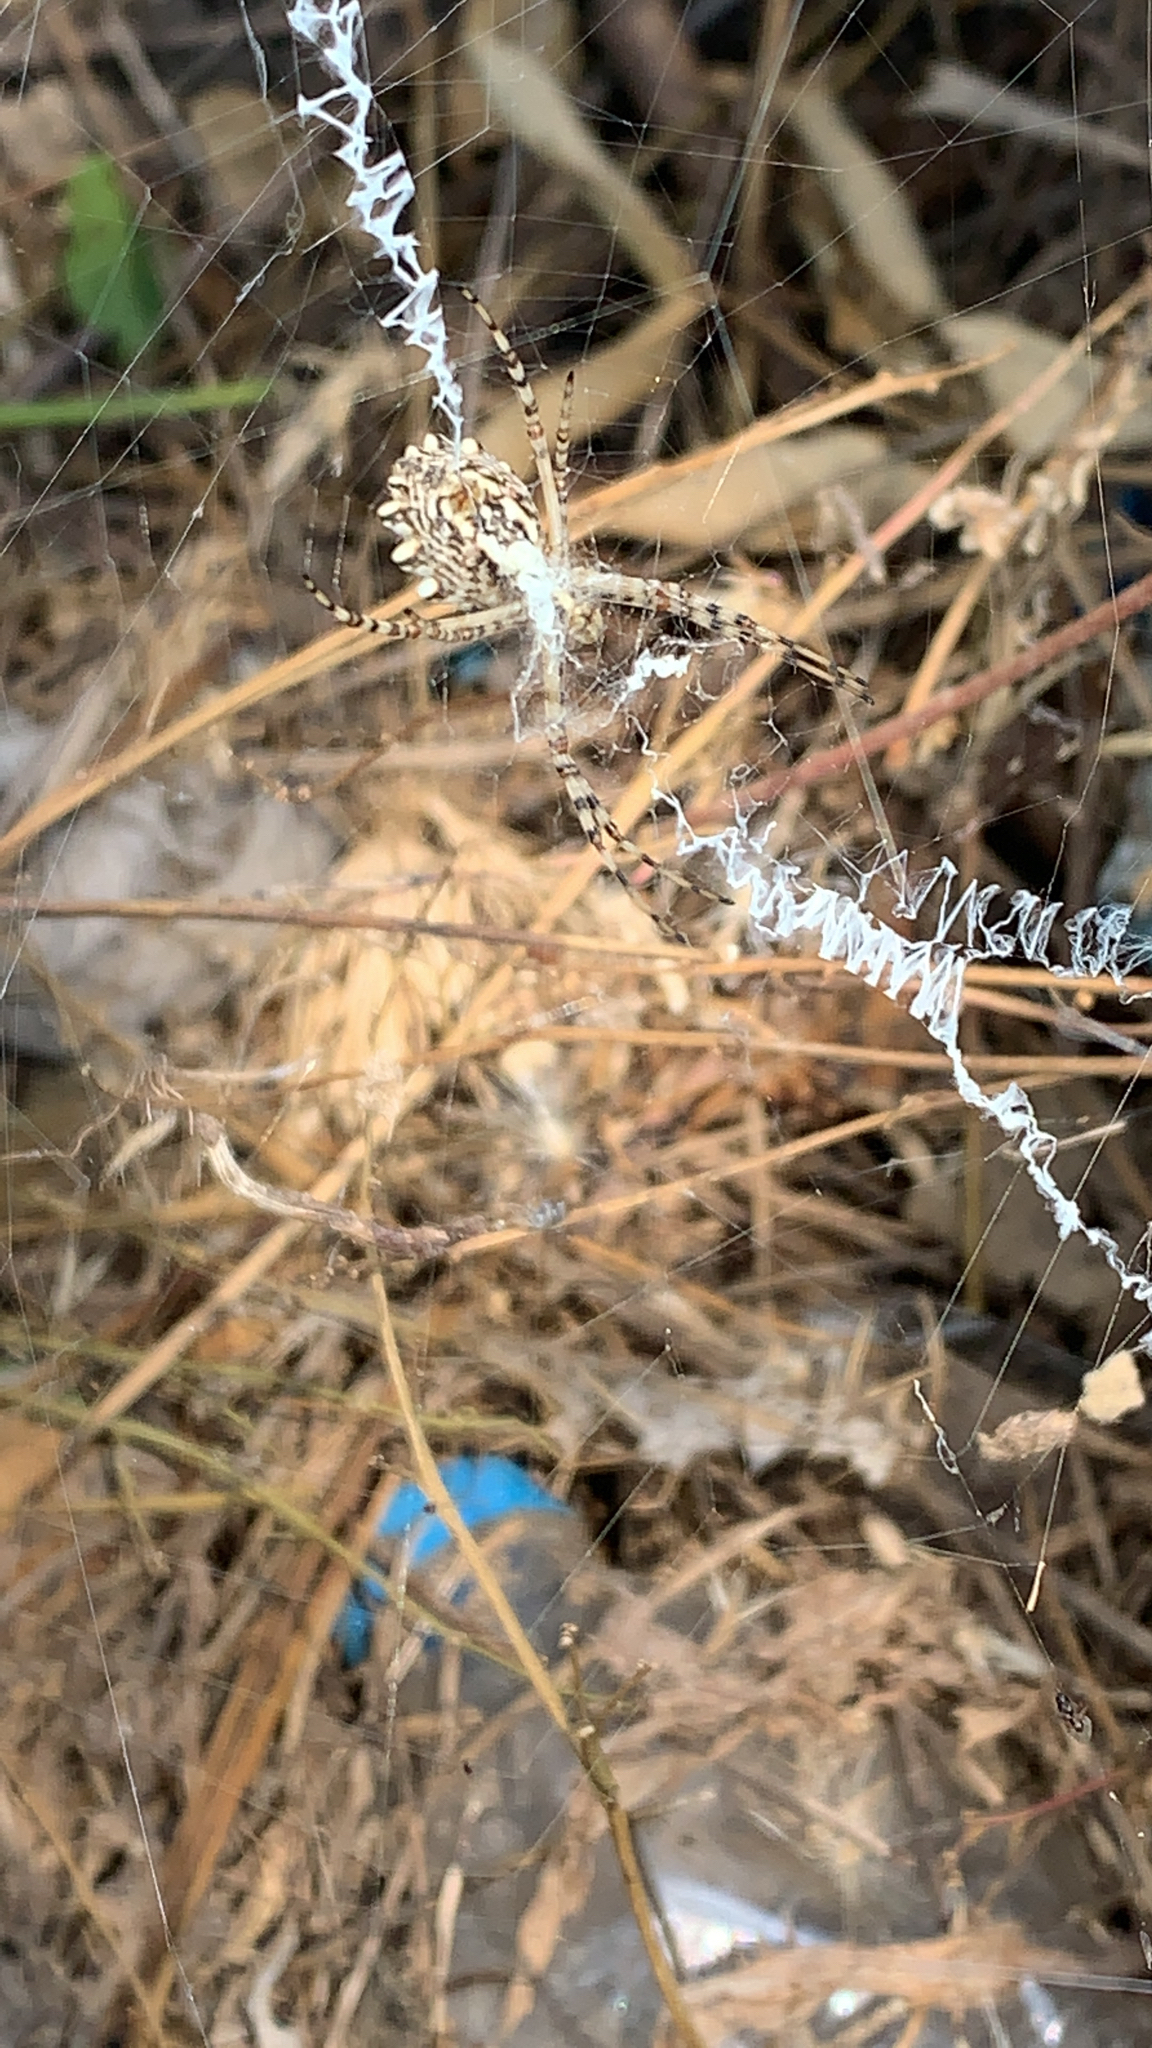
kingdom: Animalia
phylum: Arthropoda
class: Arachnida
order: Araneae
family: Araneidae
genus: Argiope
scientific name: Argiope lobata
